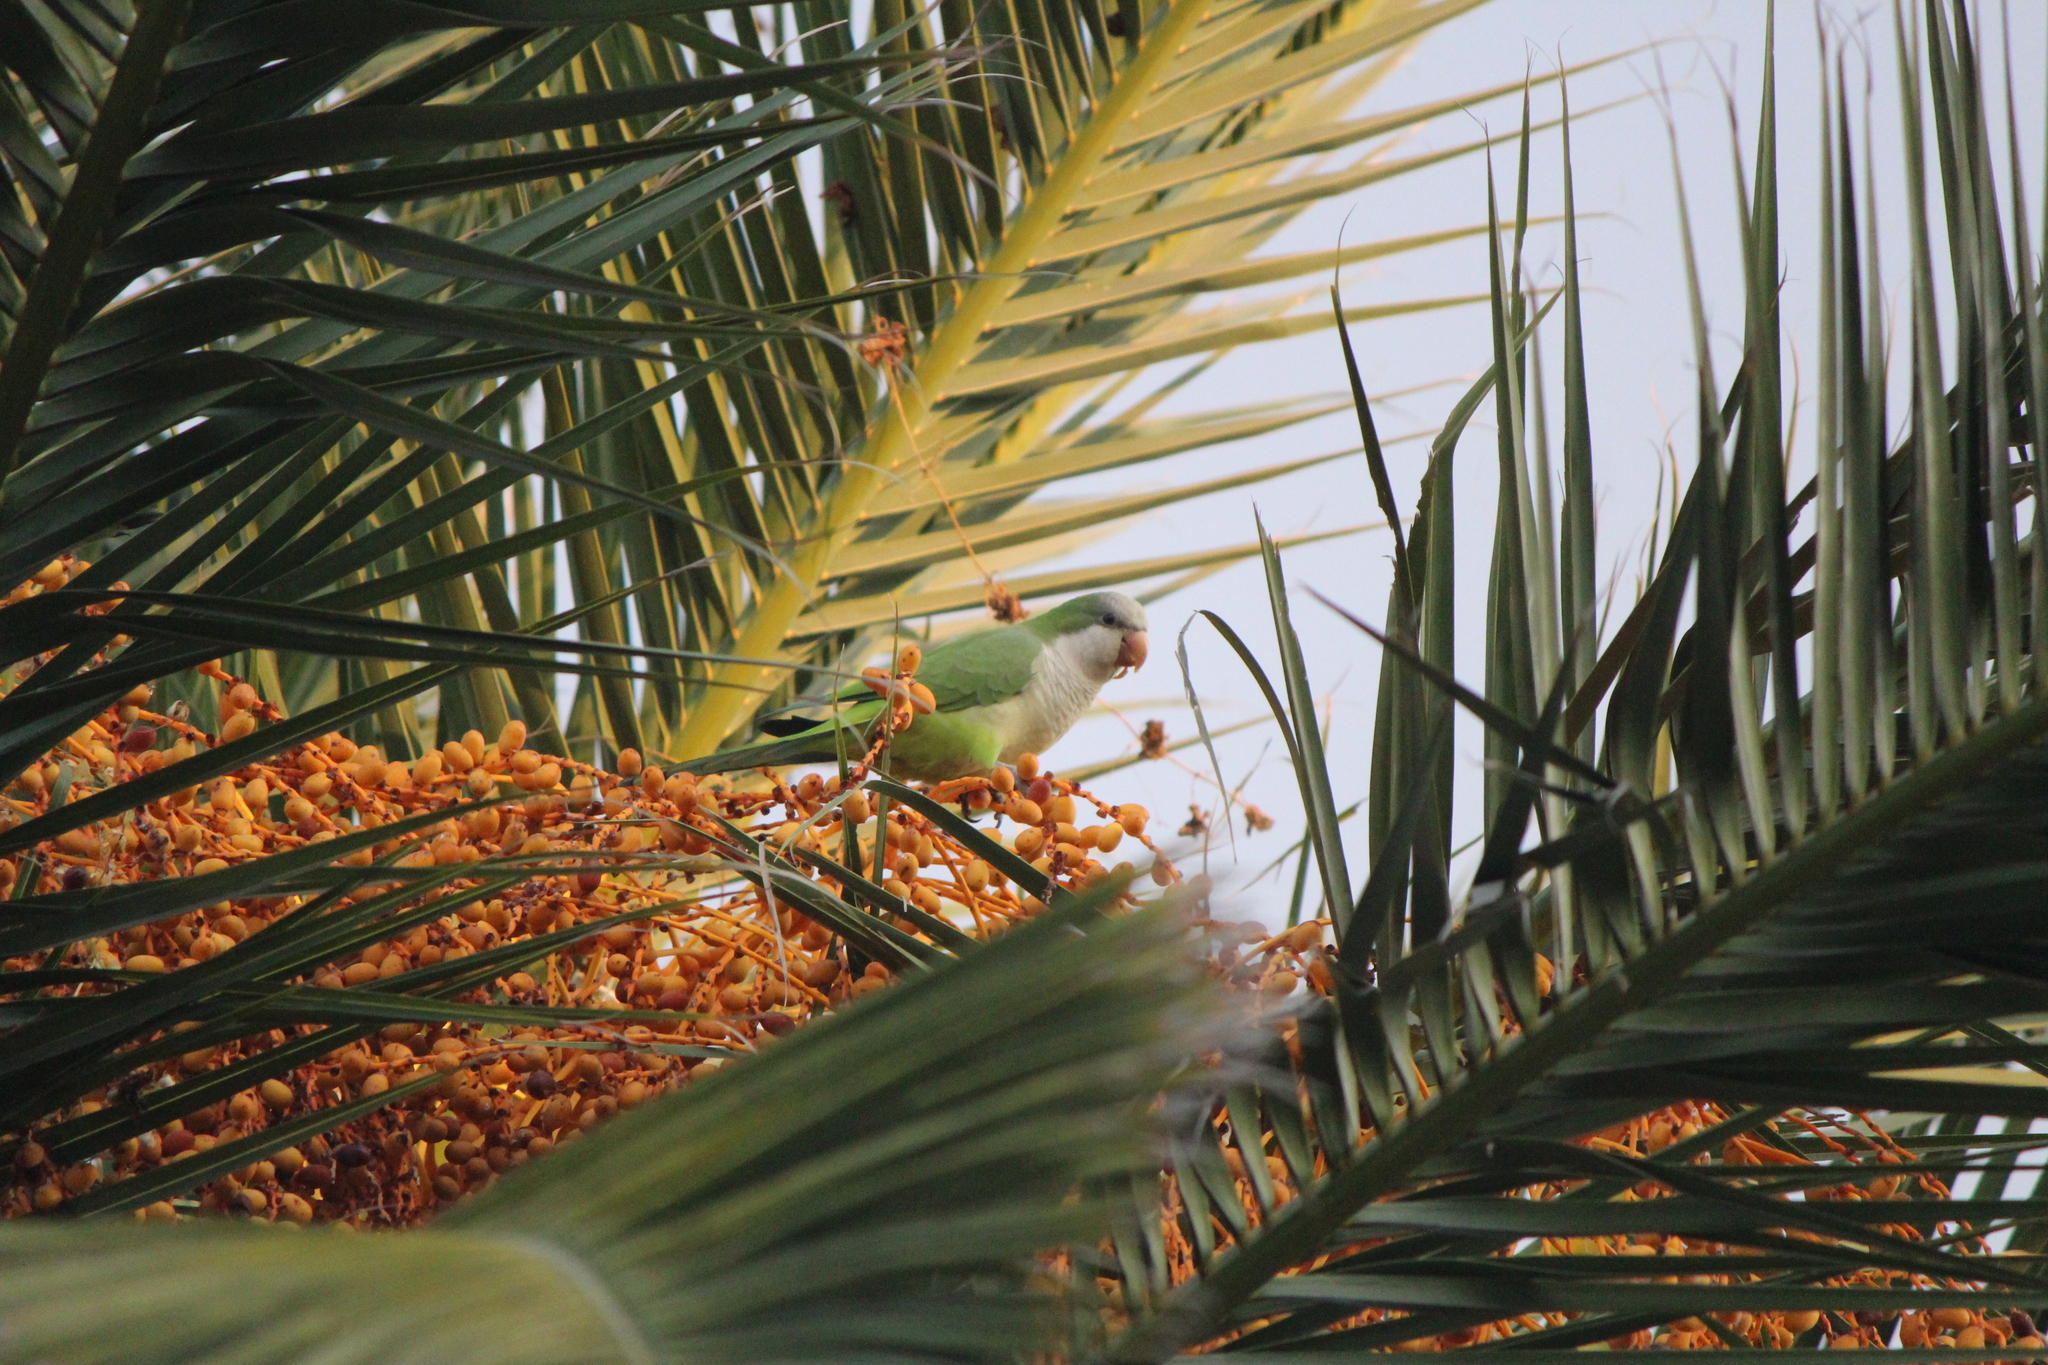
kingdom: Animalia
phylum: Chordata
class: Aves
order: Psittaciformes
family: Psittacidae
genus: Myiopsitta
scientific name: Myiopsitta monachus
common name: Monk parakeet
